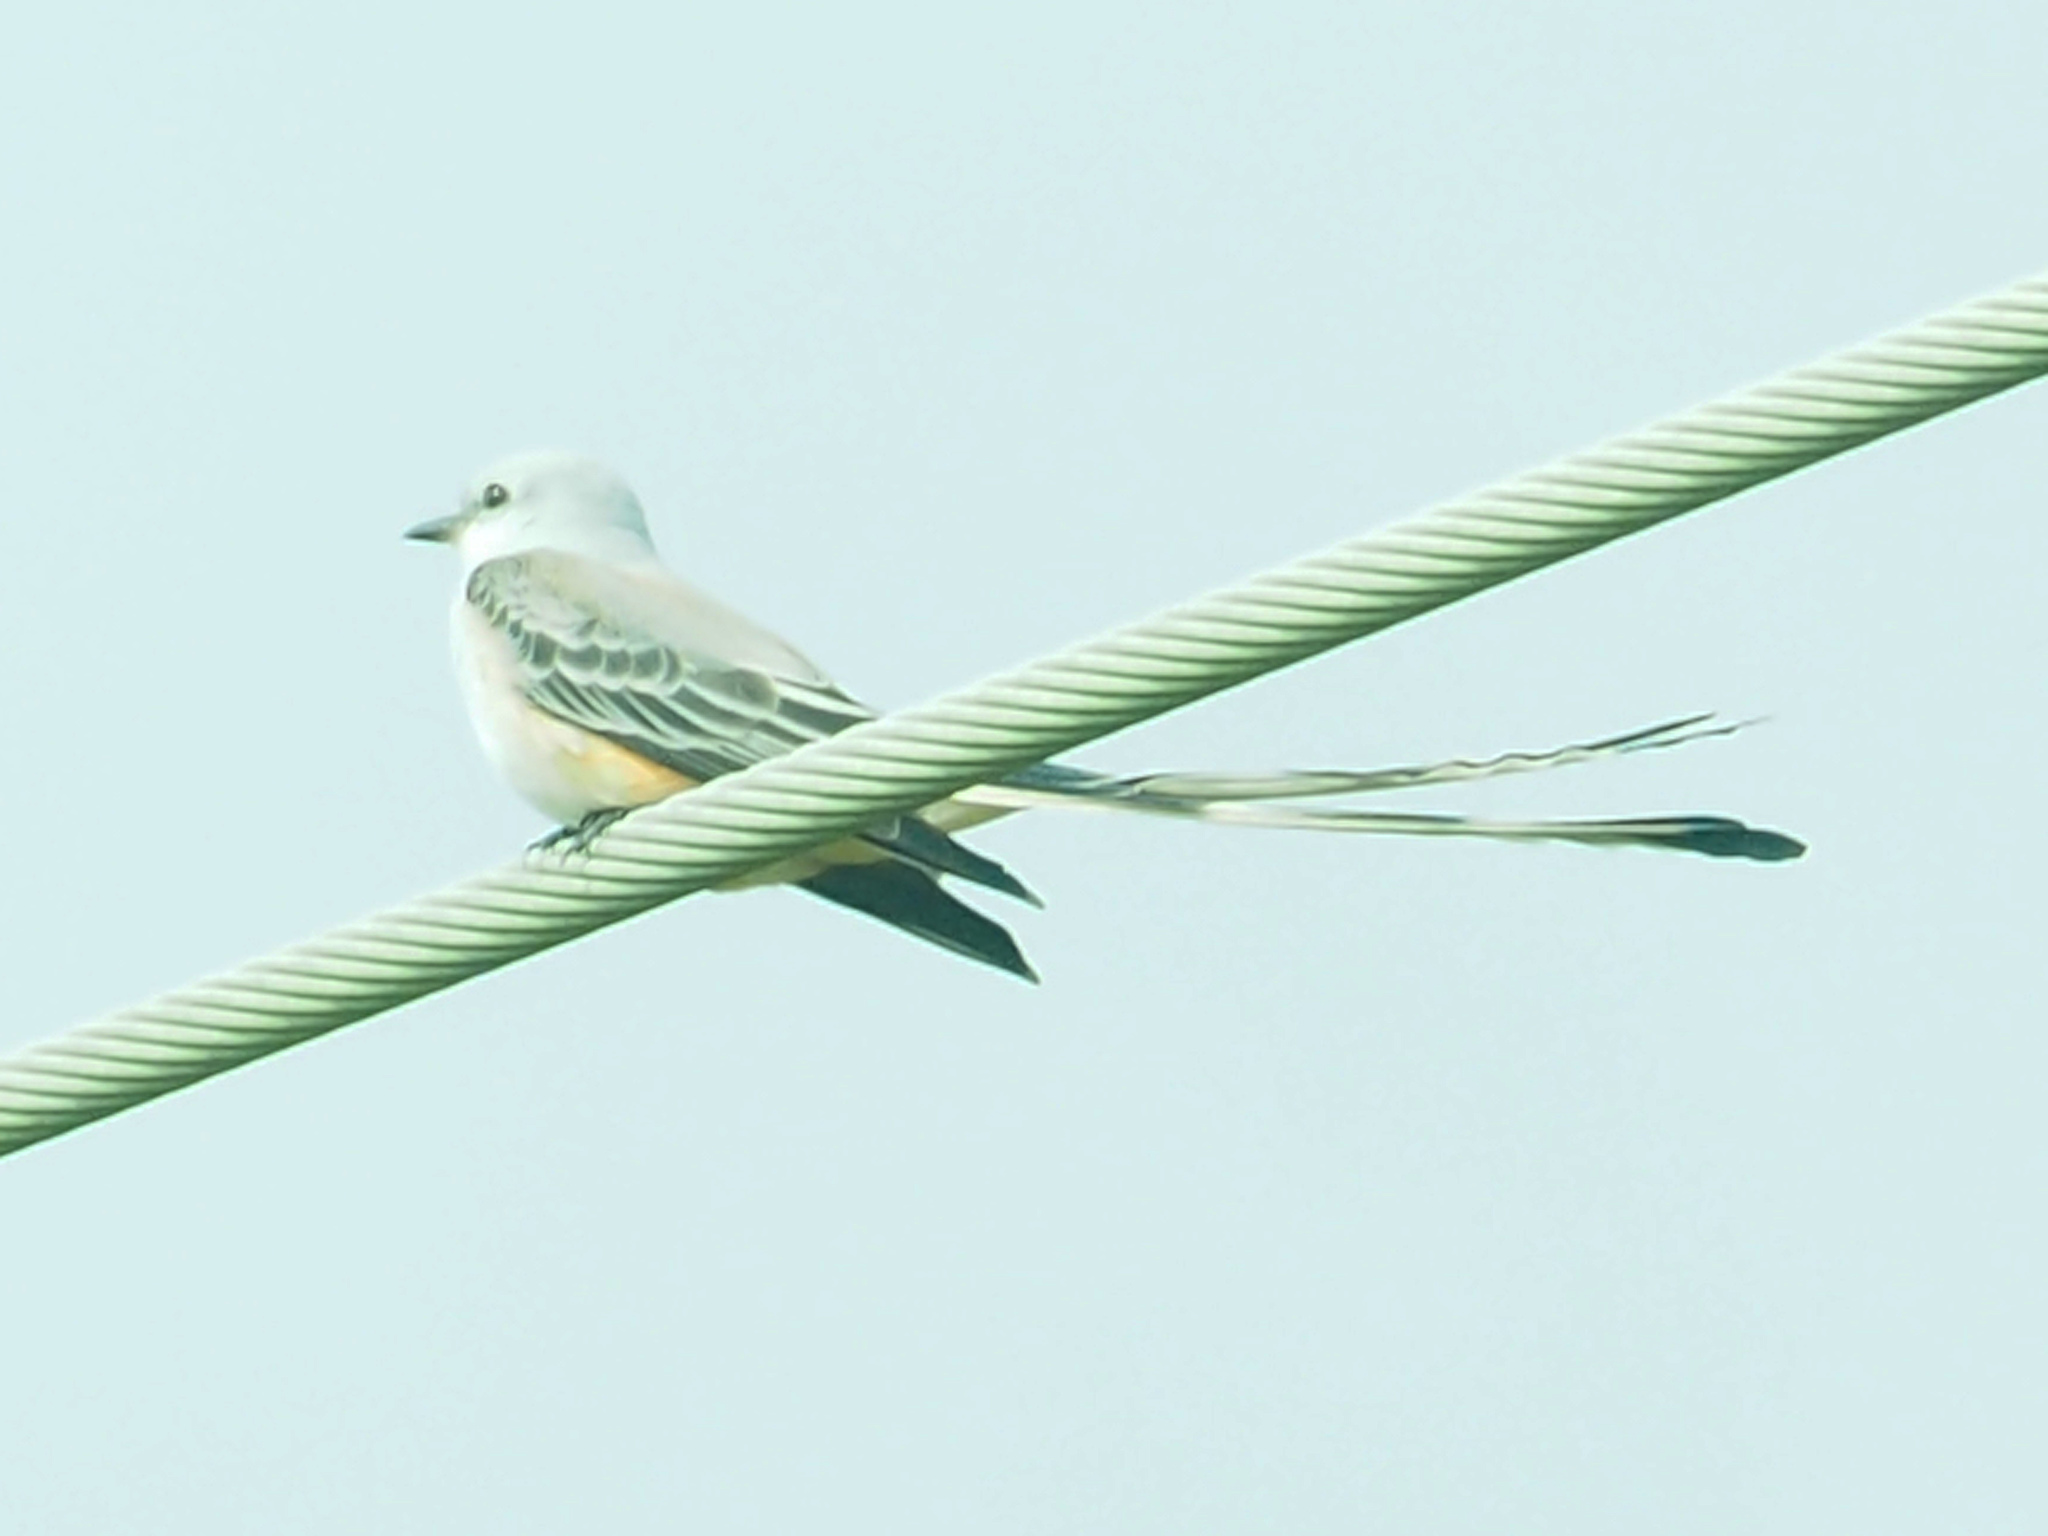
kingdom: Animalia
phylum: Chordata
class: Aves
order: Passeriformes
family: Tyrannidae
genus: Tyrannus
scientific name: Tyrannus forficatus
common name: Scissor-tailed flycatcher
